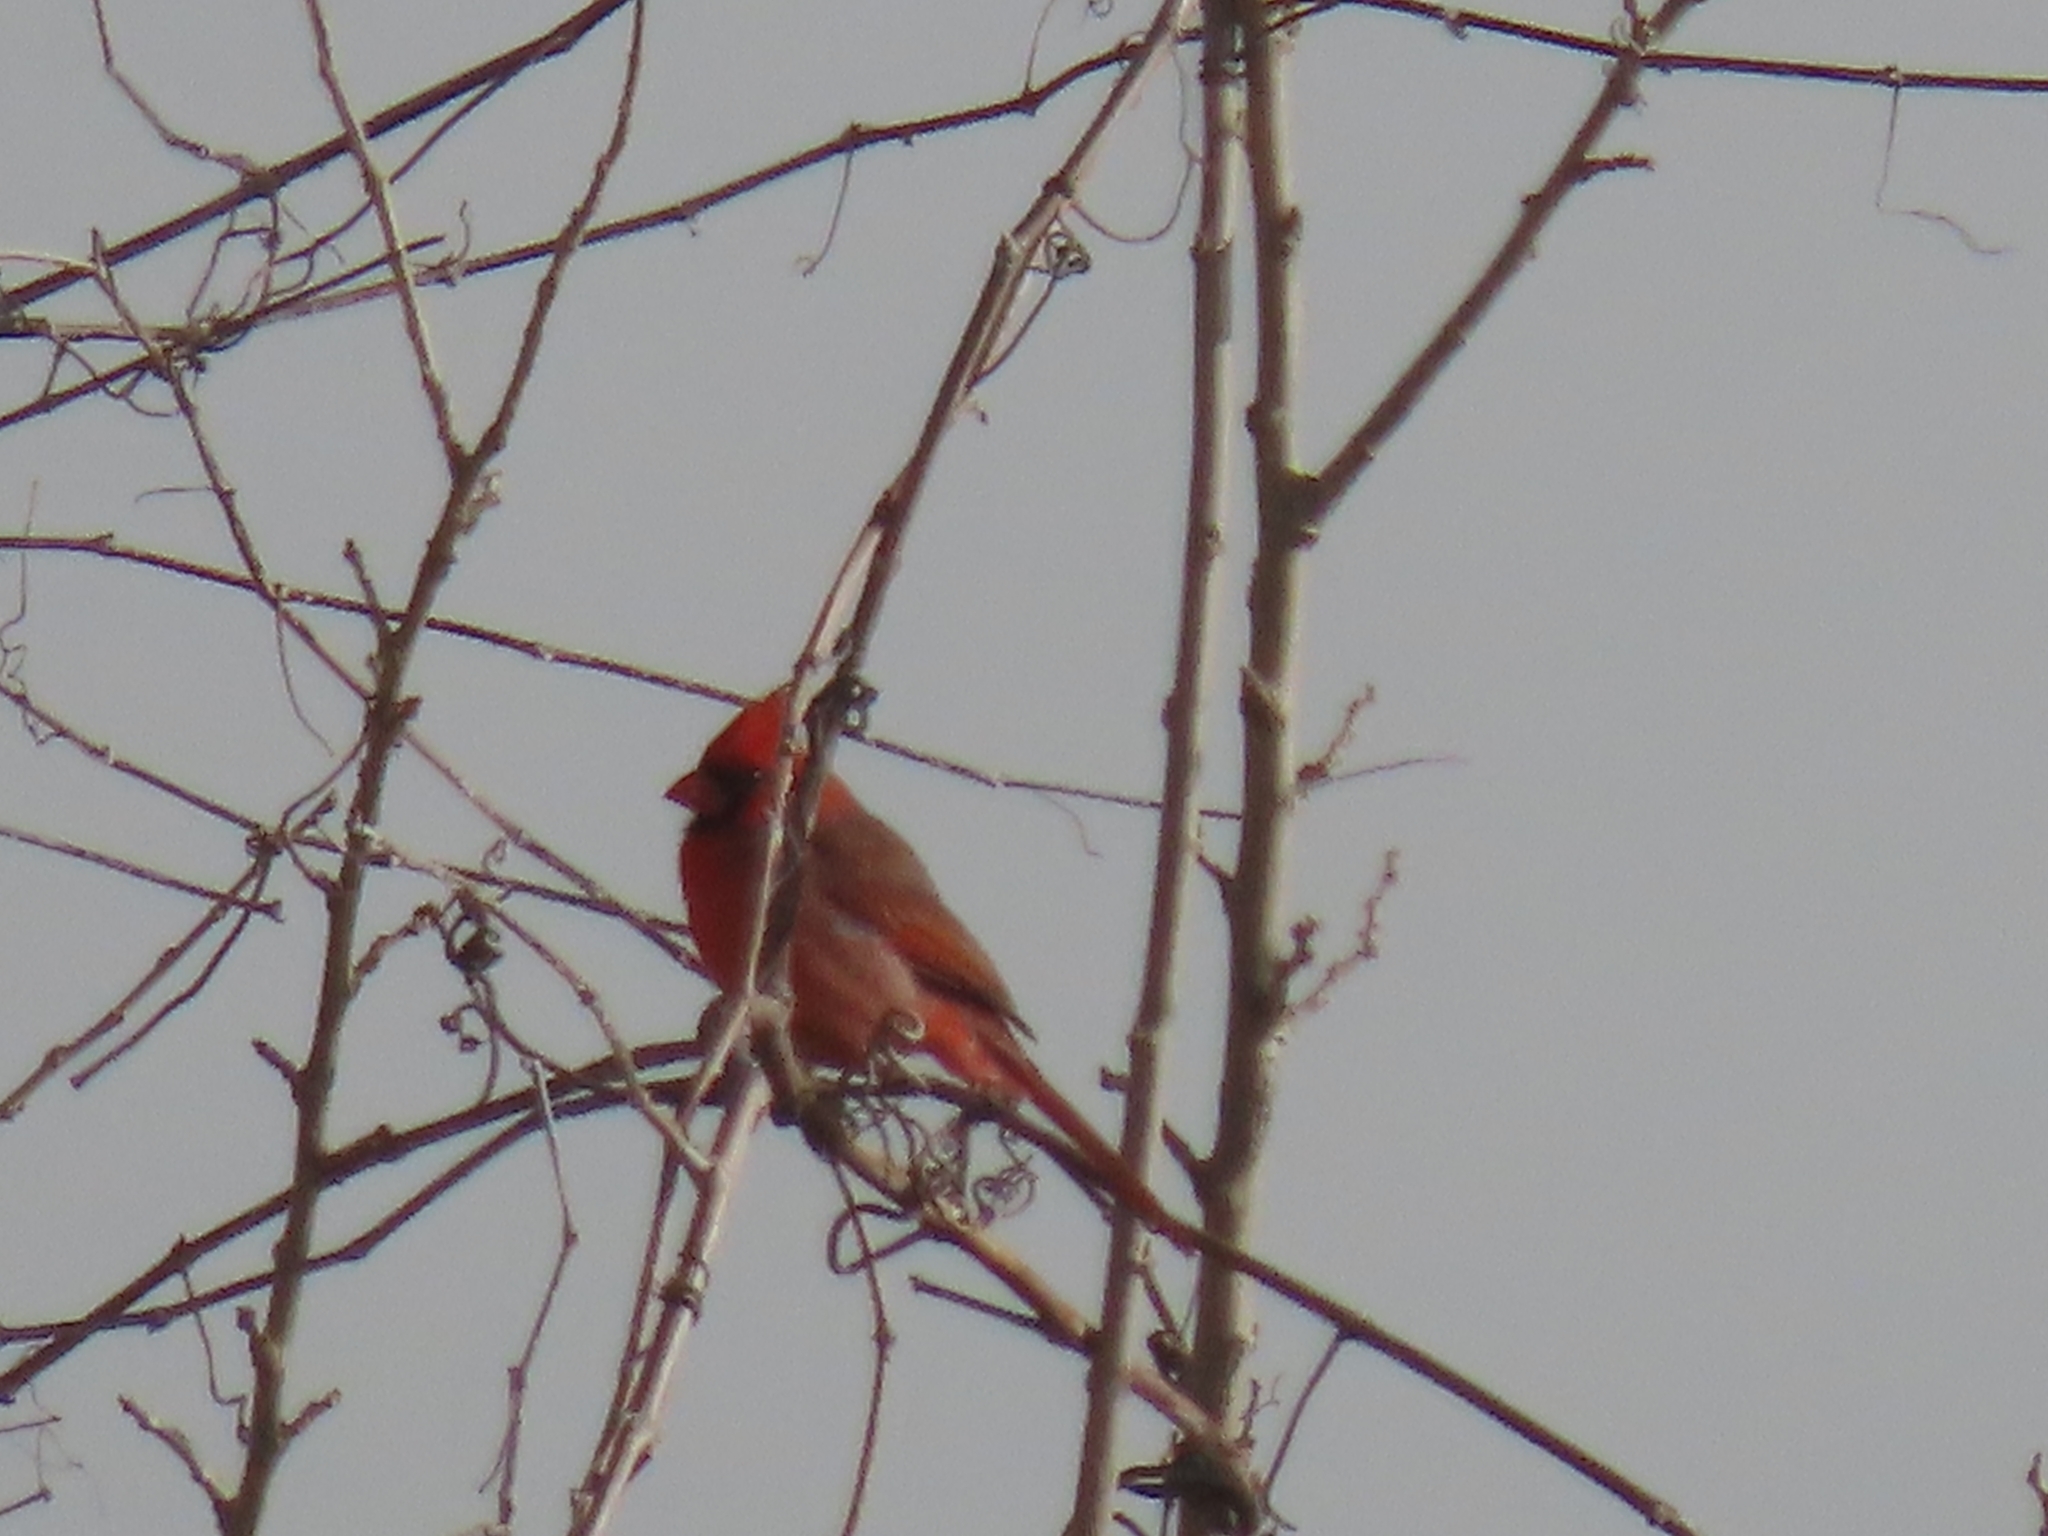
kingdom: Animalia
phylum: Chordata
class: Aves
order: Passeriformes
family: Cardinalidae
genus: Cardinalis
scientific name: Cardinalis cardinalis
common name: Northern cardinal
